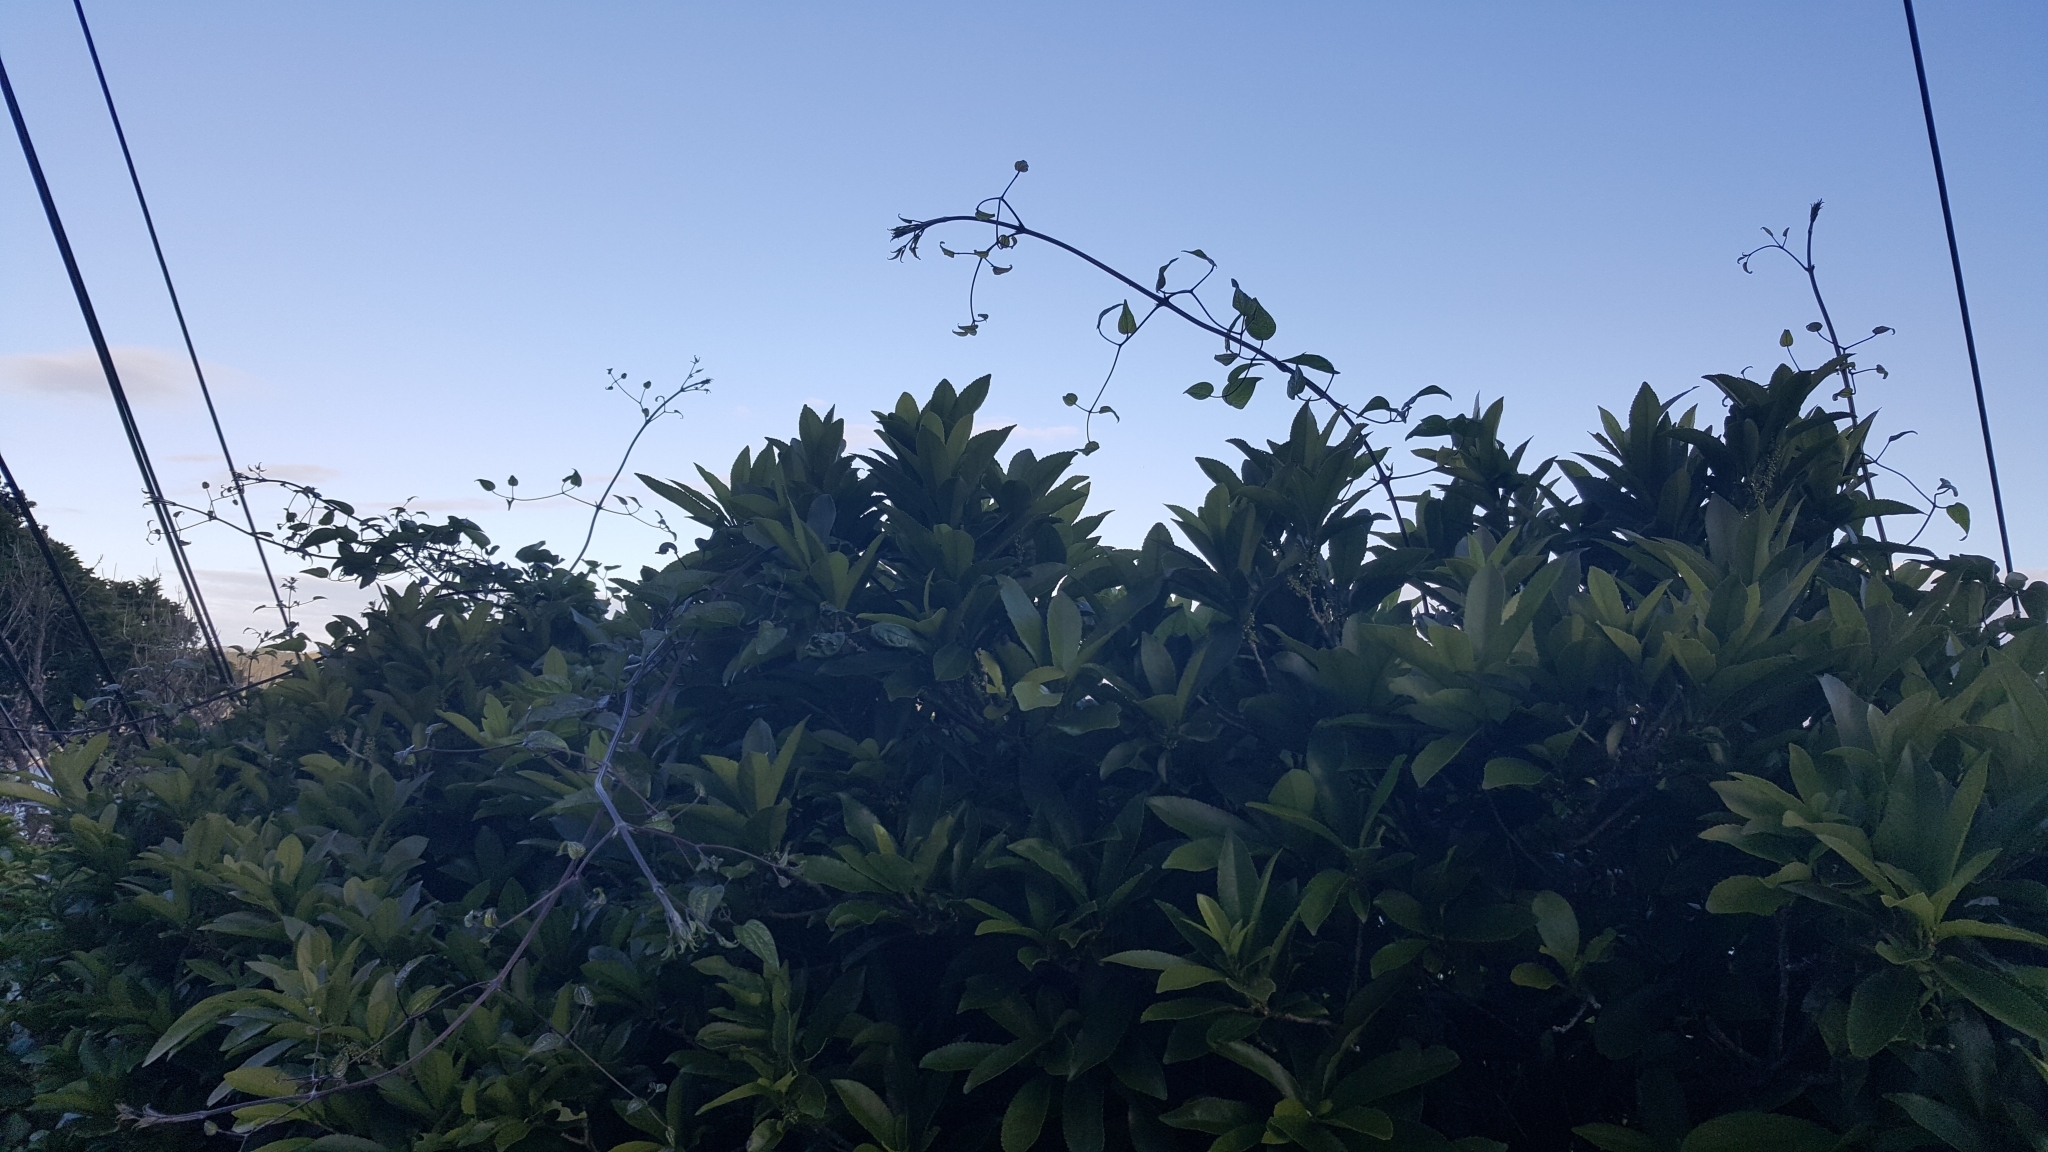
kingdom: Plantae
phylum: Tracheophyta
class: Magnoliopsida
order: Ranunculales
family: Ranunculaceae
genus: Clematis
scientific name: Clematis vitalba
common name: Evergreen clematis
